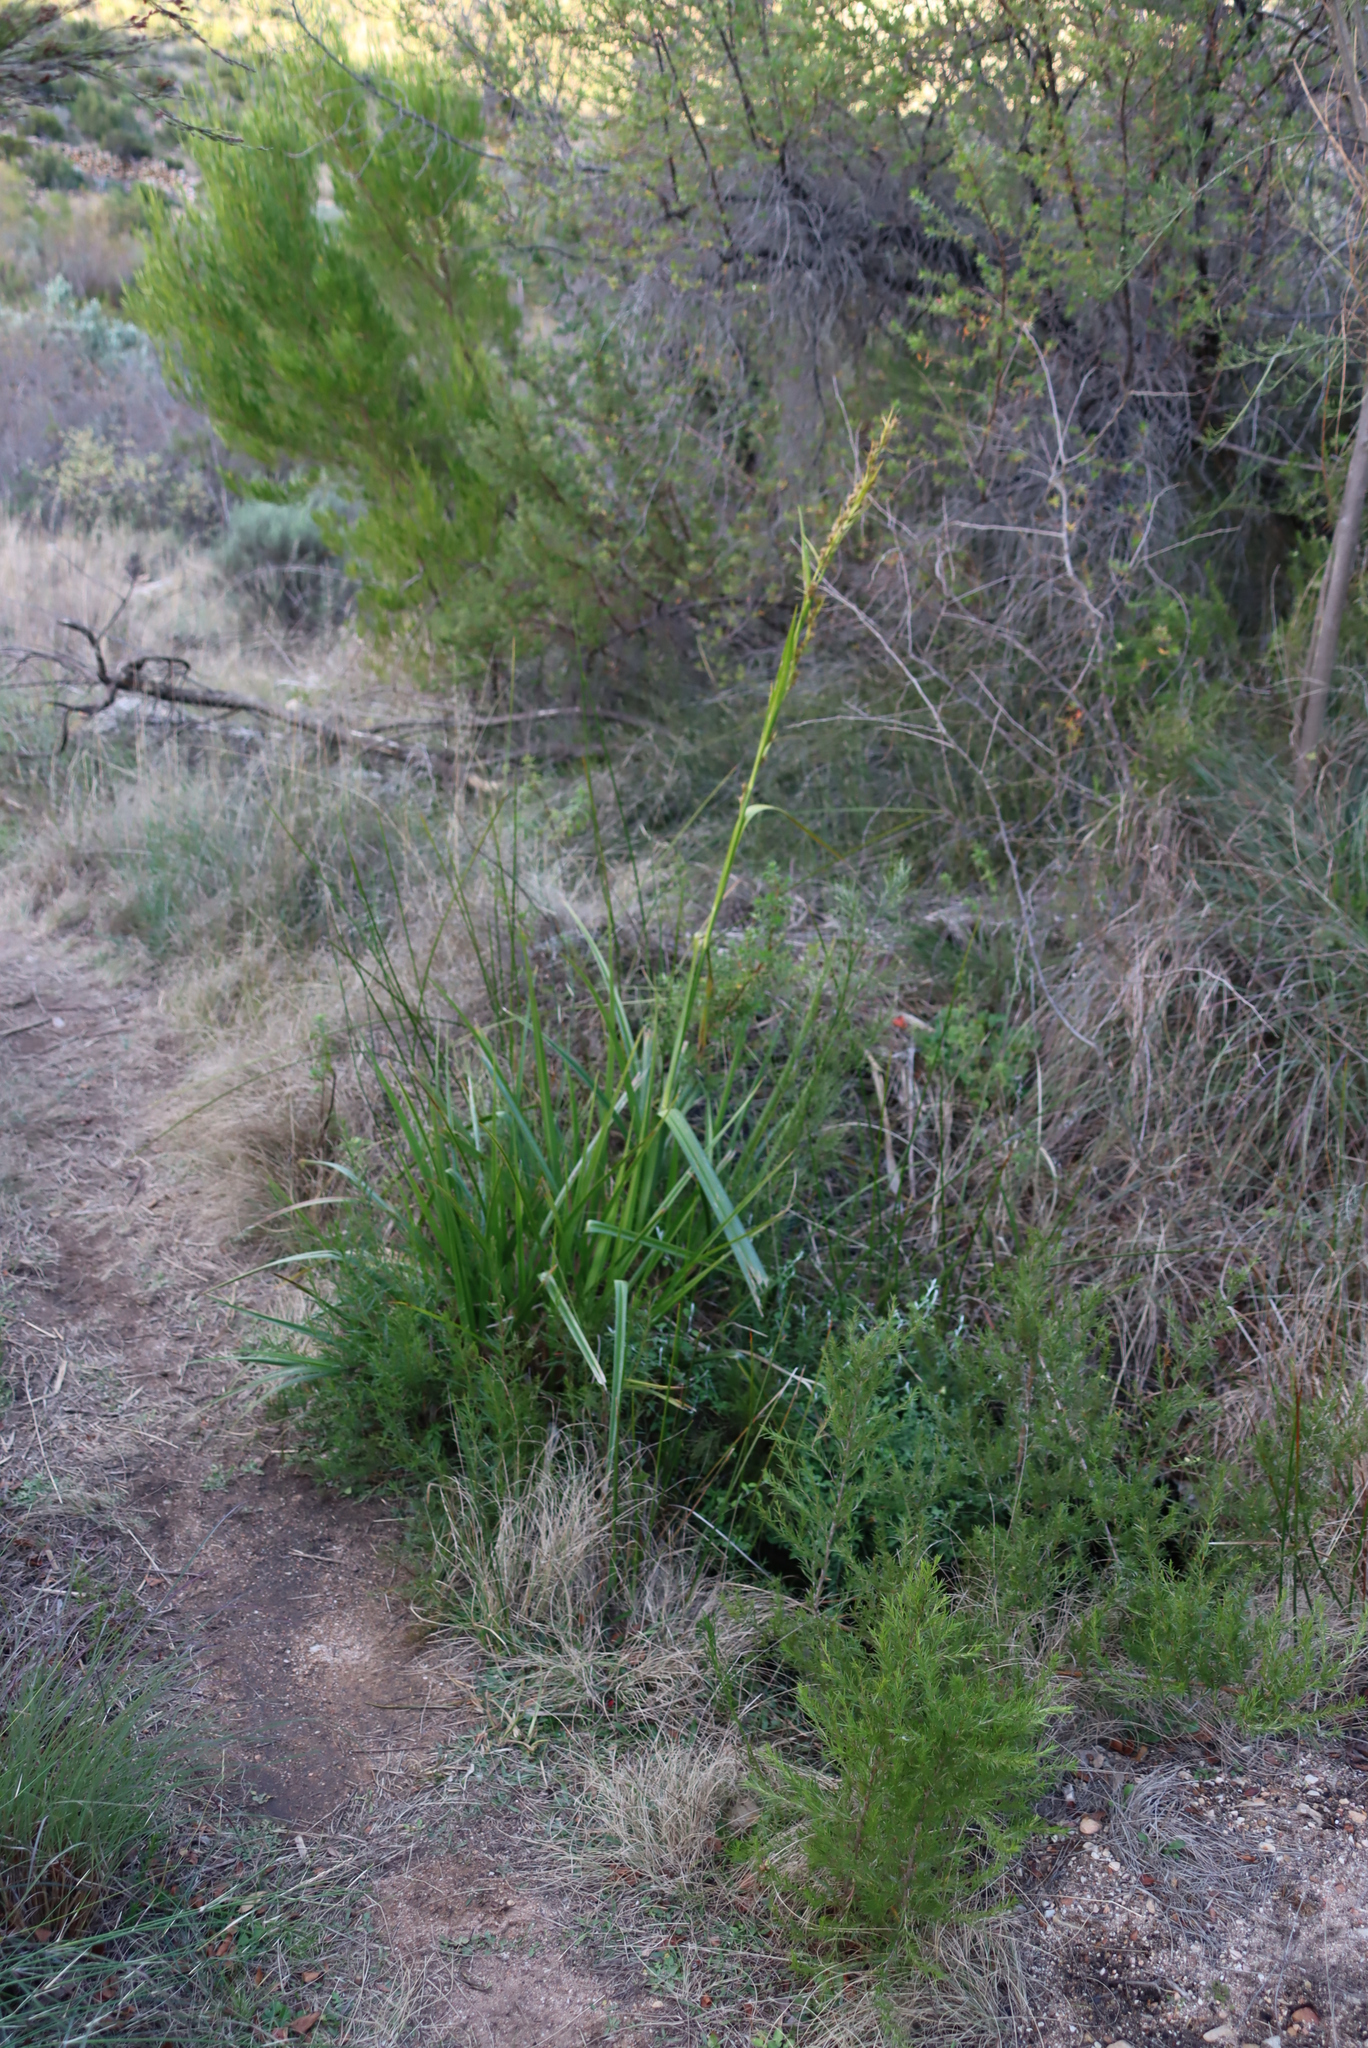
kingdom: Plantae
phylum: Tracheophyta
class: Liliopsida
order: Poales
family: Cyperaceae
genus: Carpha
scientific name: Carpha glomerata
